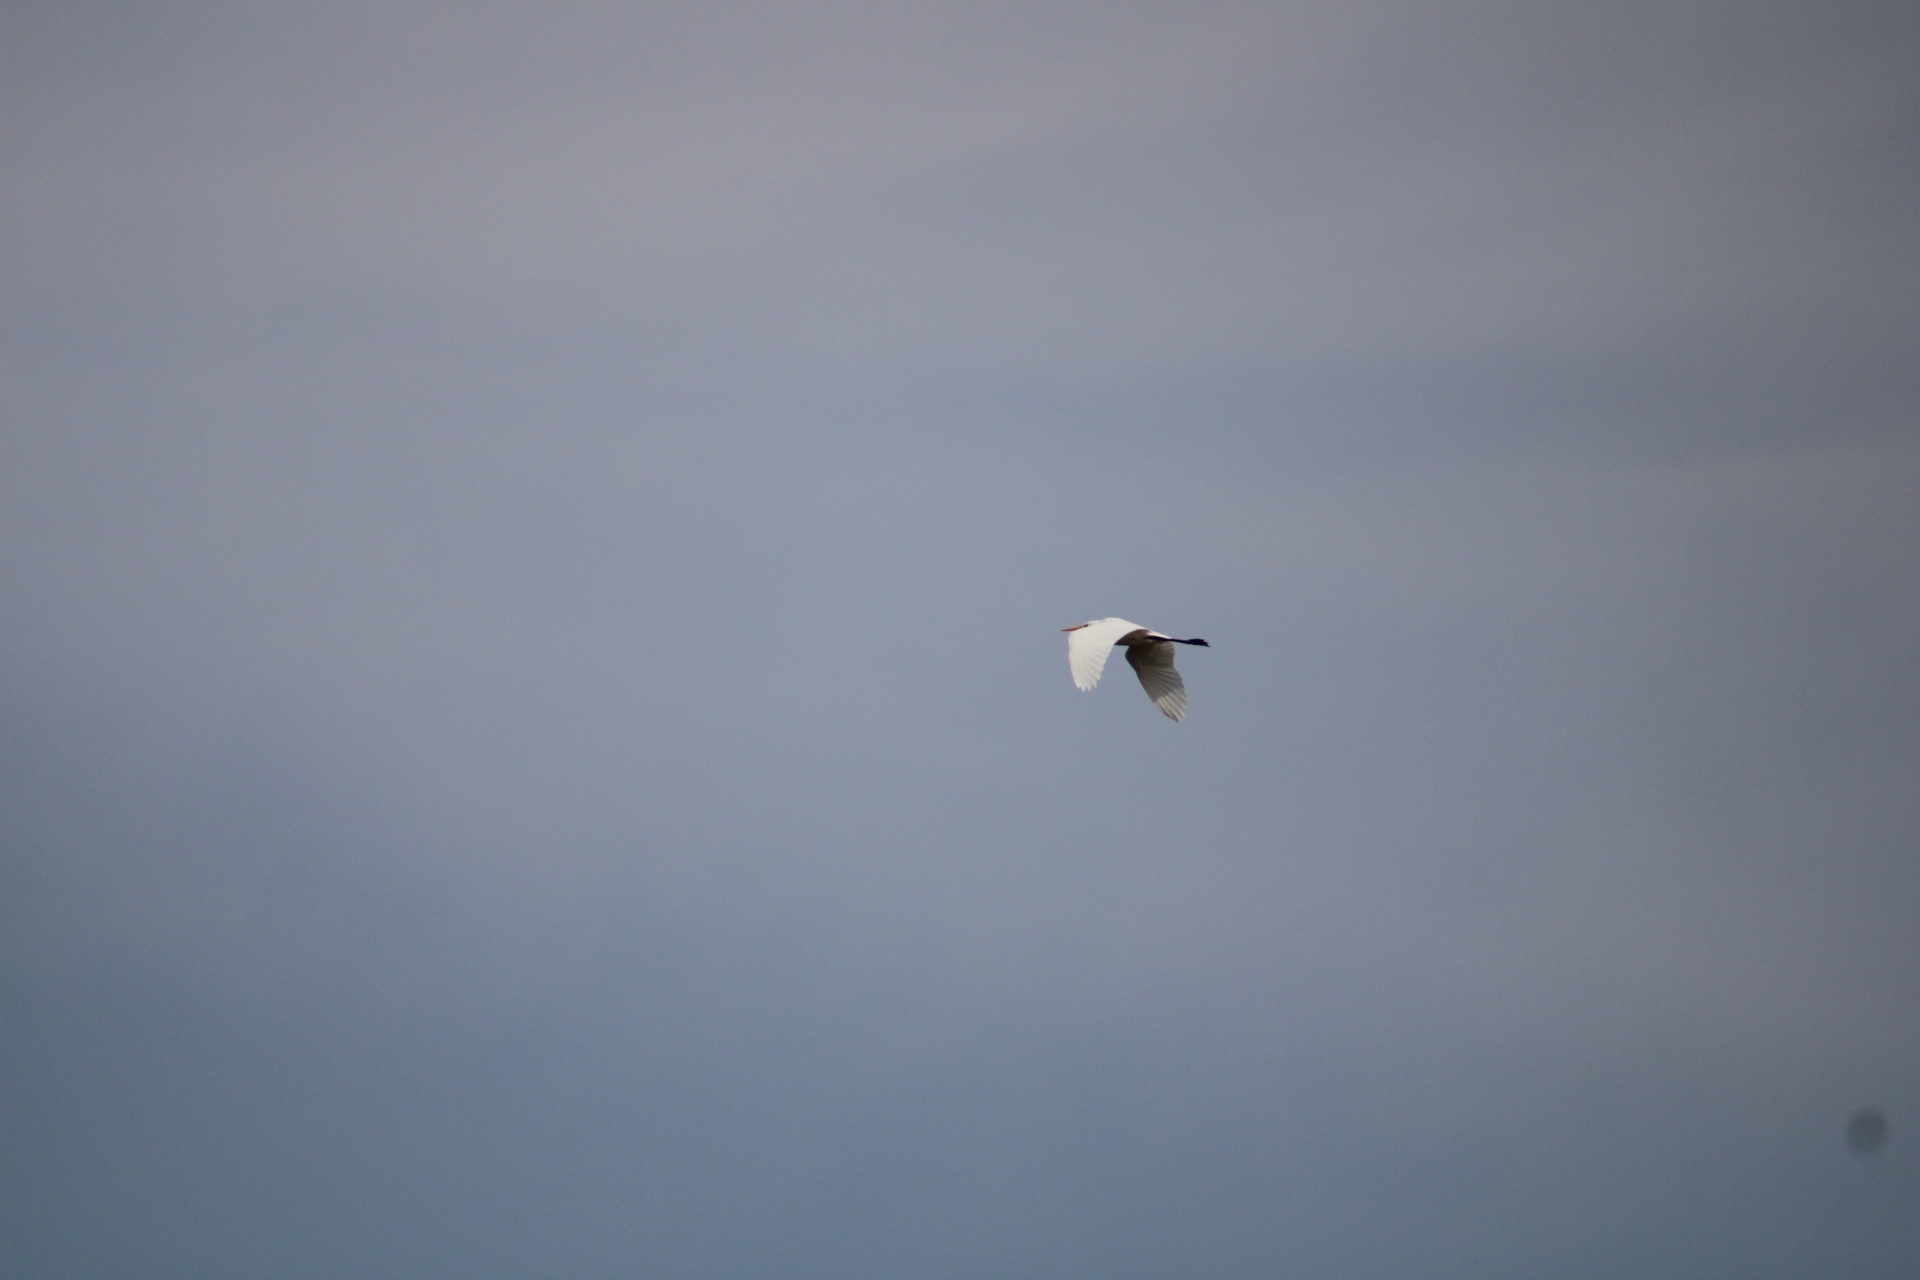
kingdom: Animalia
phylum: Chordata
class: Aves
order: Pelecaniformes
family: Ardeidae
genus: Ardea
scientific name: Ardea alba
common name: Great egret
